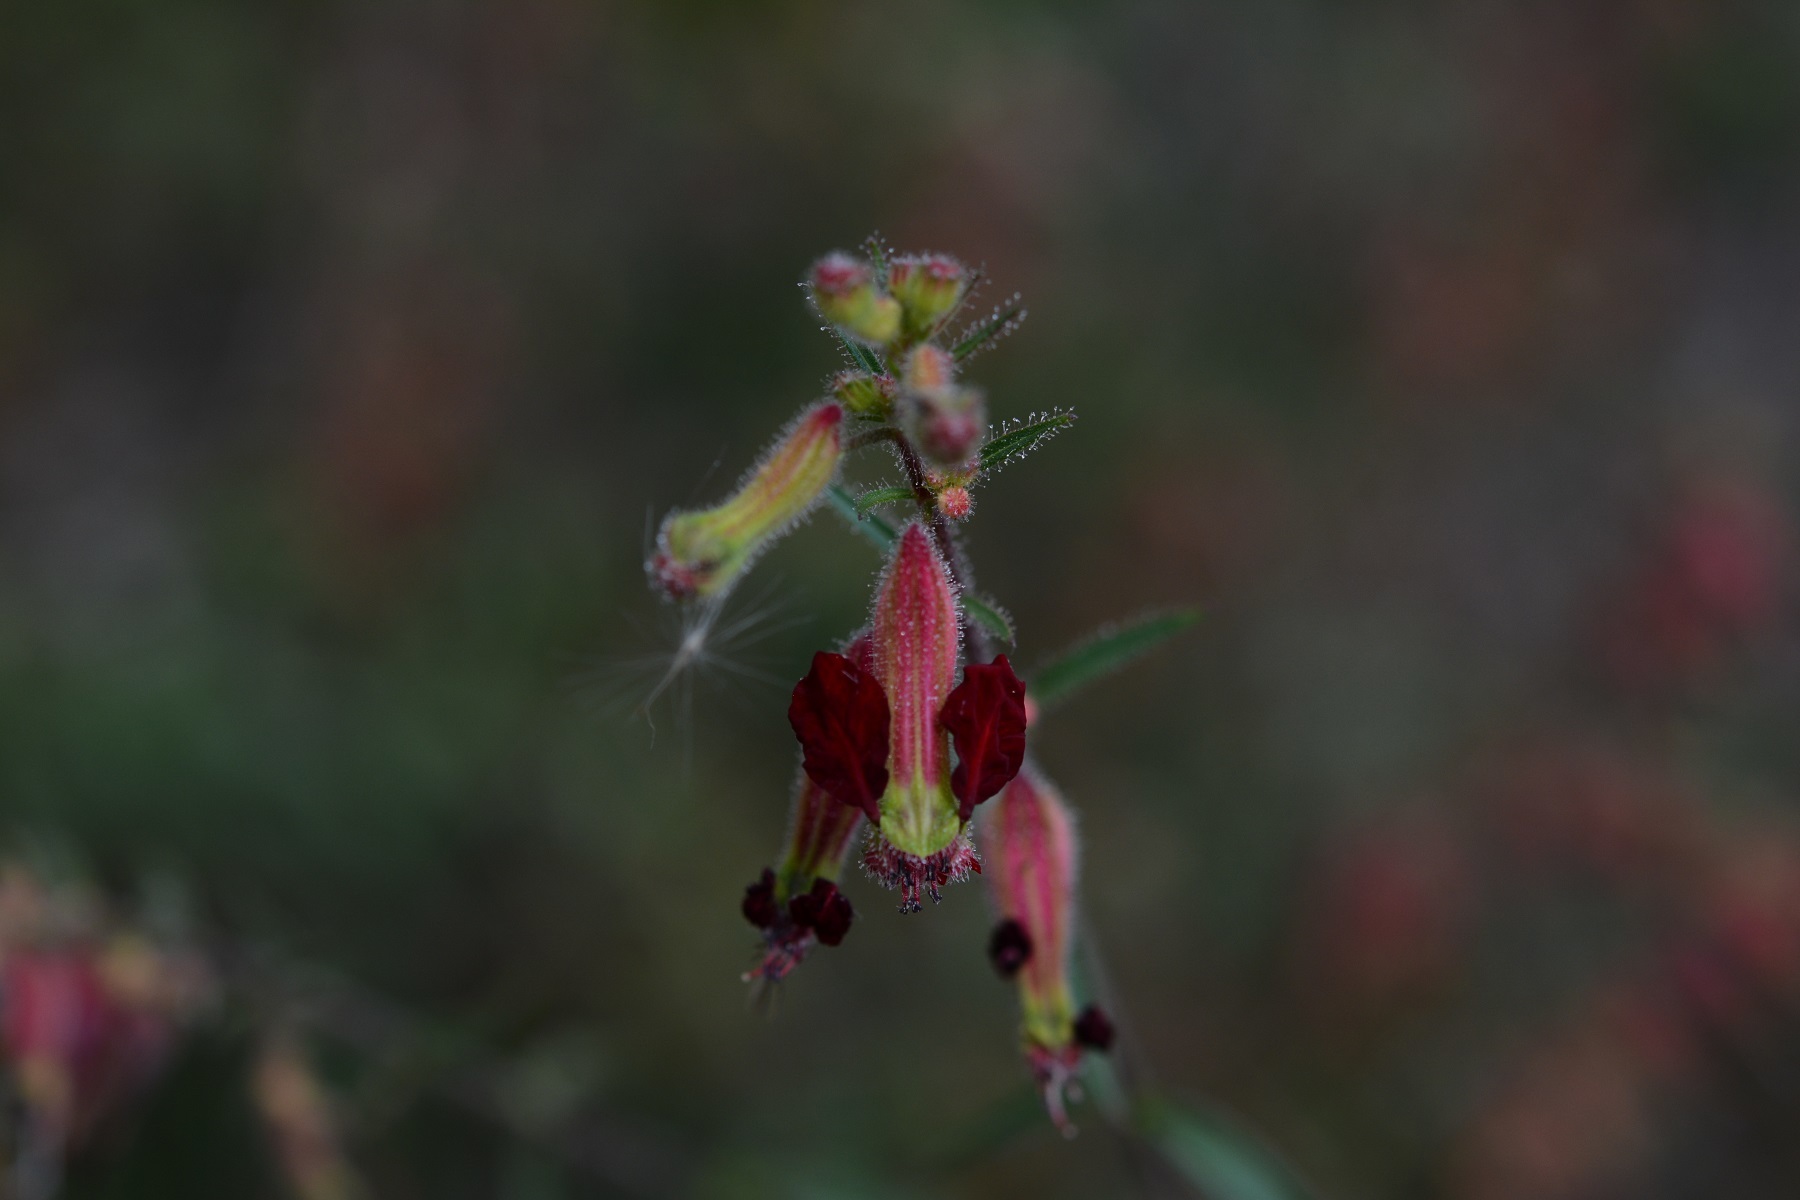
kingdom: Plantae
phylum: Tracheophyta
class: Magnoliopsida
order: Myrtales
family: Lythraceae
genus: Cuphea
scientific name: Cuphea hookeriana
